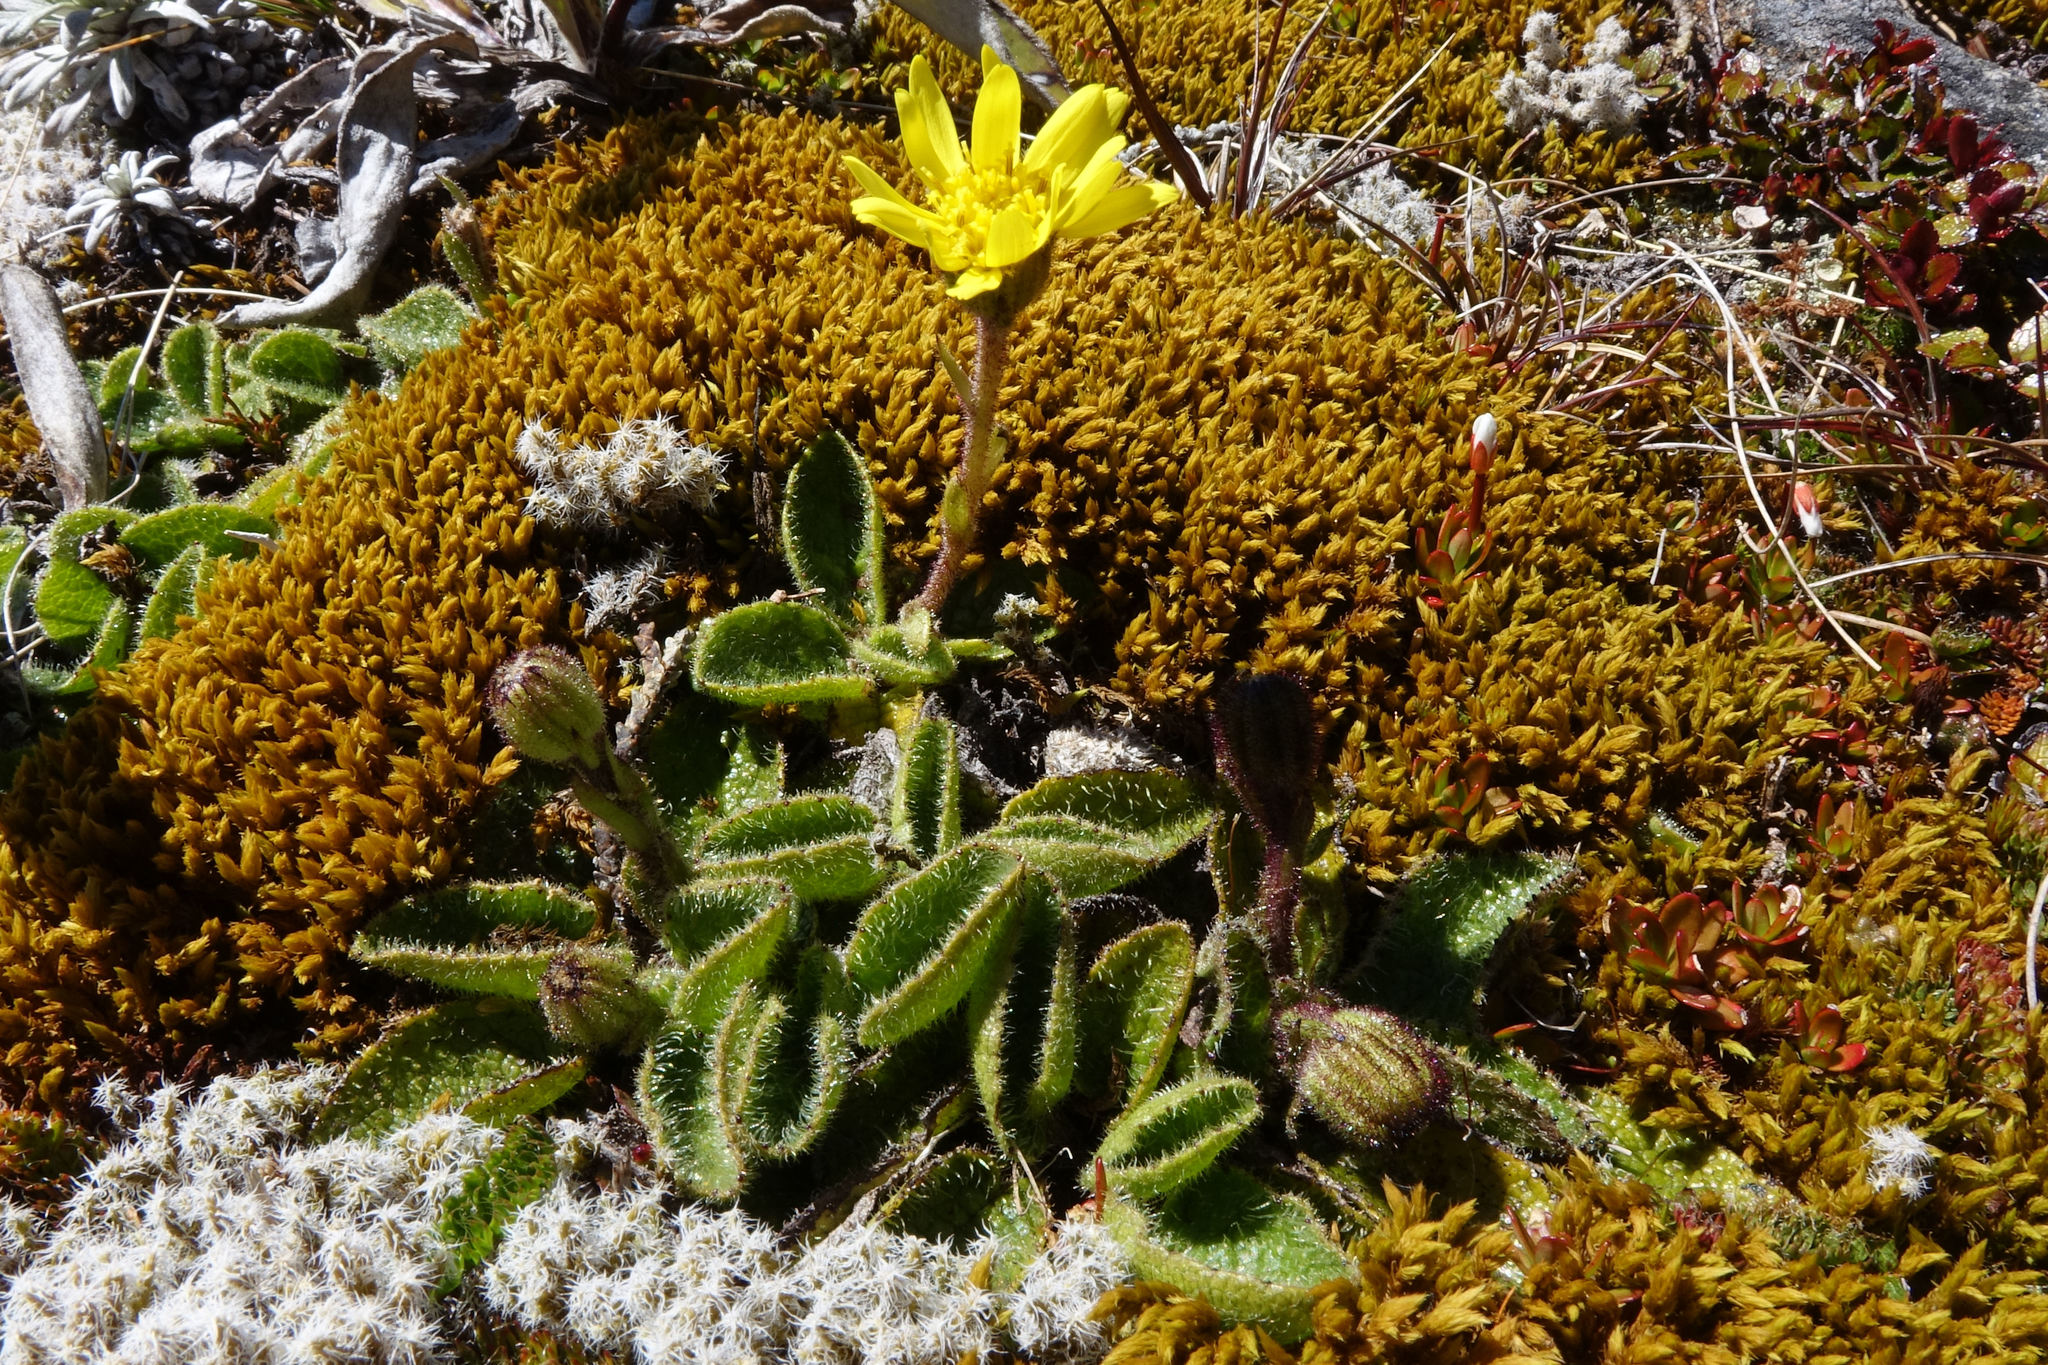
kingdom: Plantae
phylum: Tracheophyta
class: Magnoliopsida
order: Asterales
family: Asteraceae
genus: Brachyglottis
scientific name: Brachyglottis bellidioides
